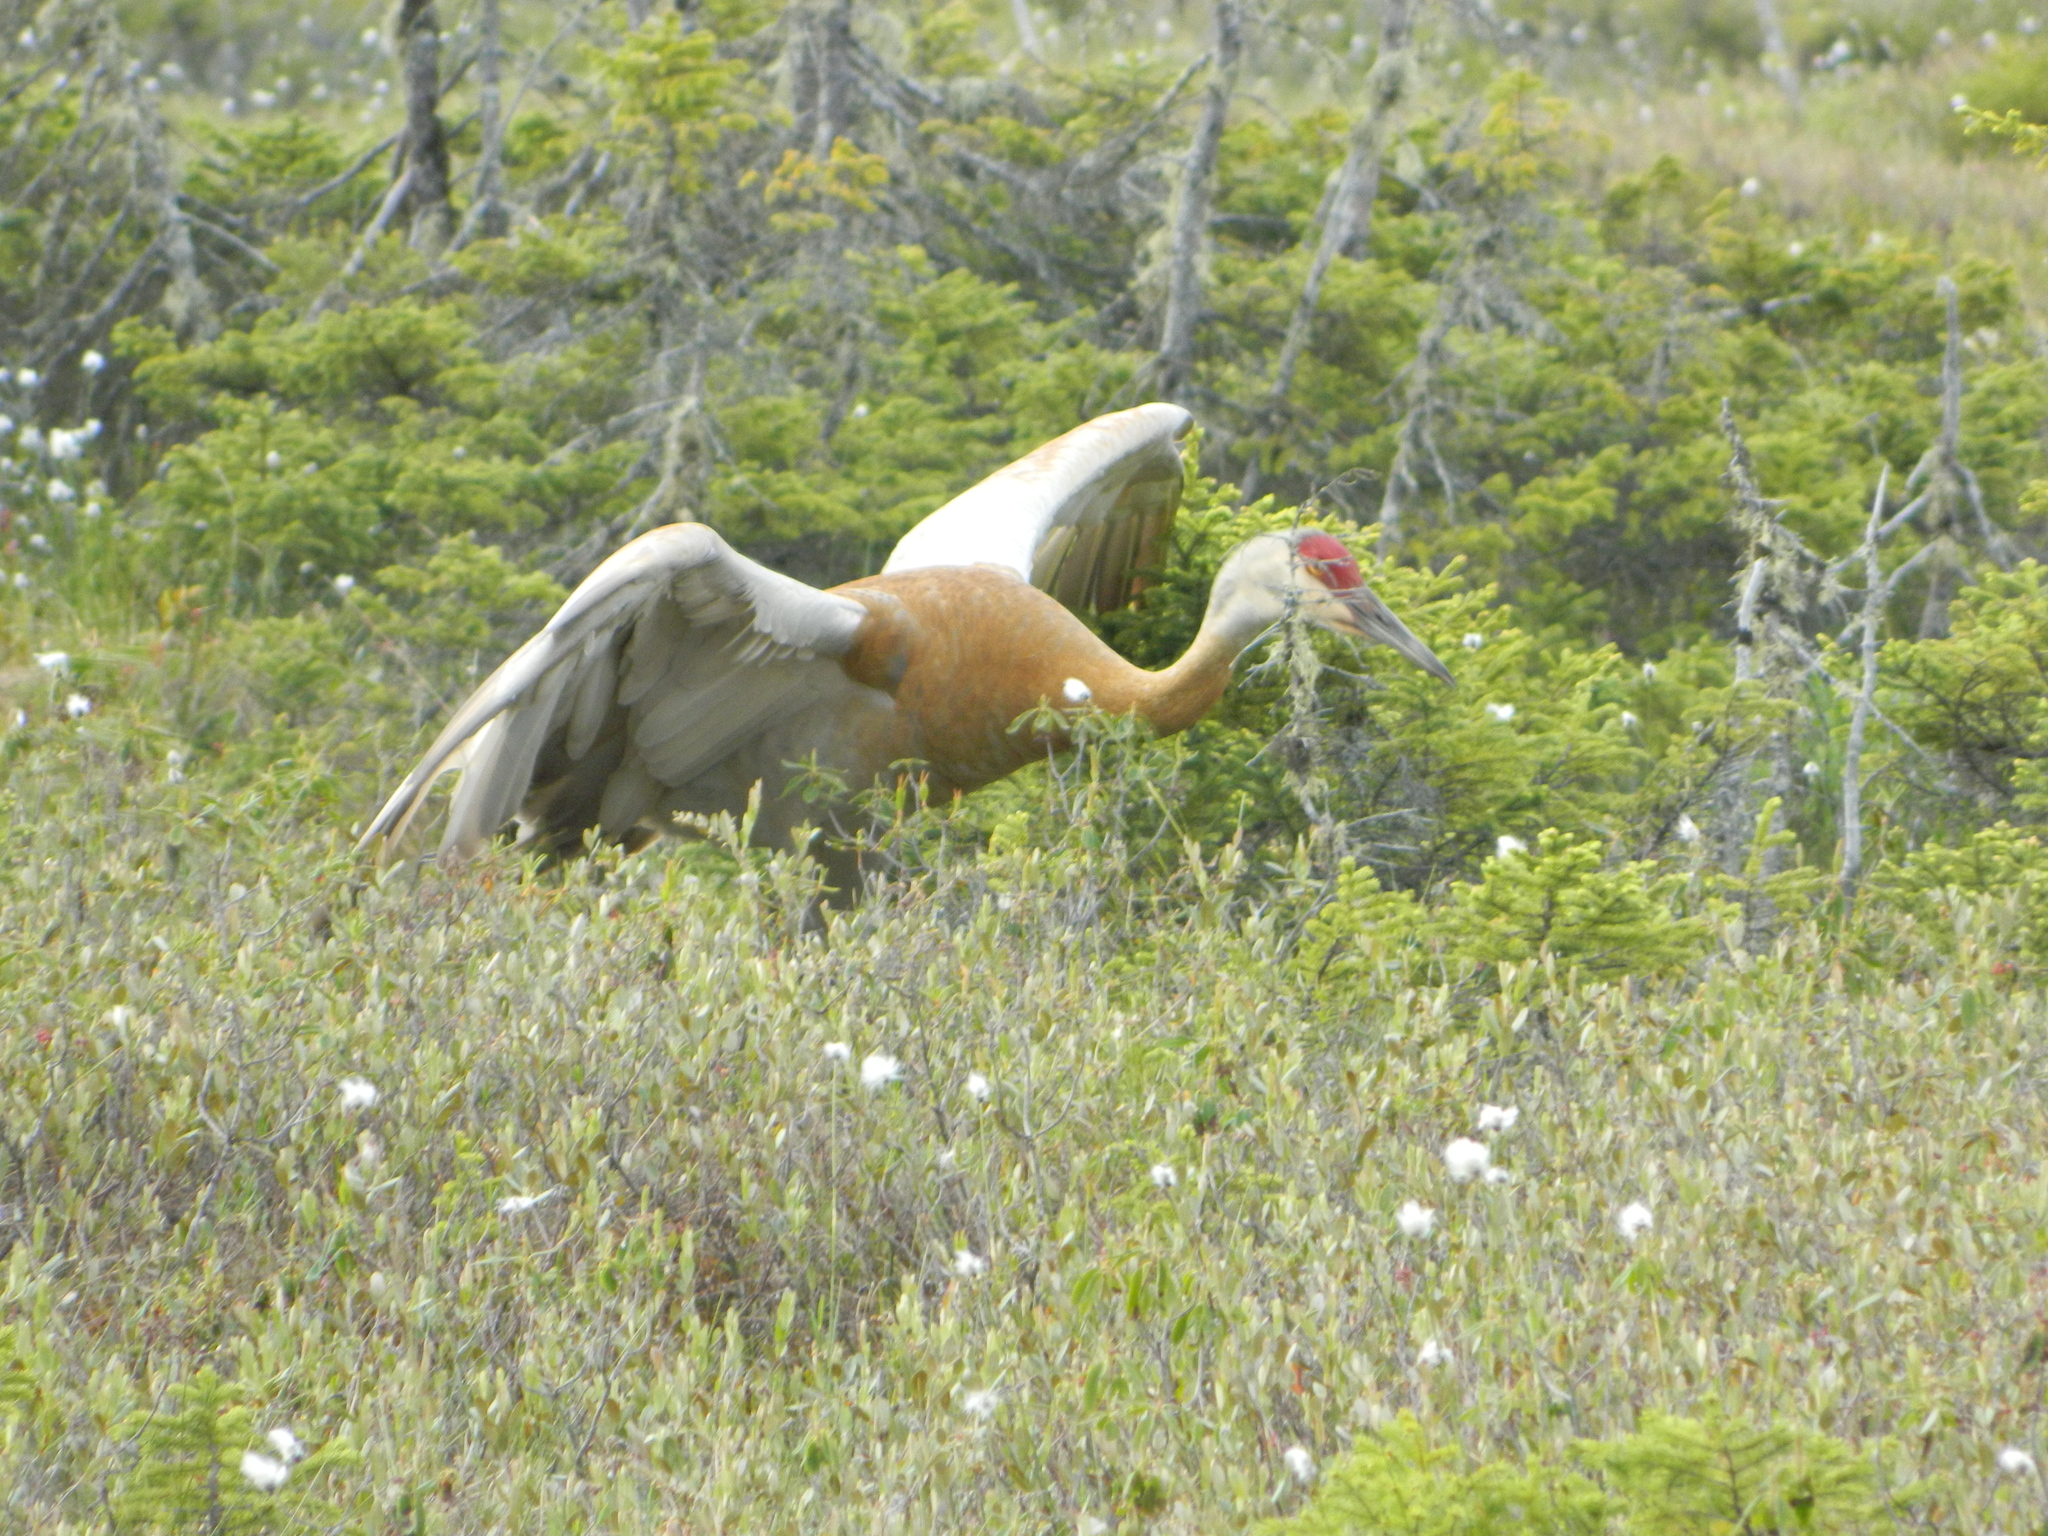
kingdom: Animalia
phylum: Chordata
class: Aves
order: Gruiformes
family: Gruidae
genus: Grus
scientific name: Grus canadensis
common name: Sandhill crane
